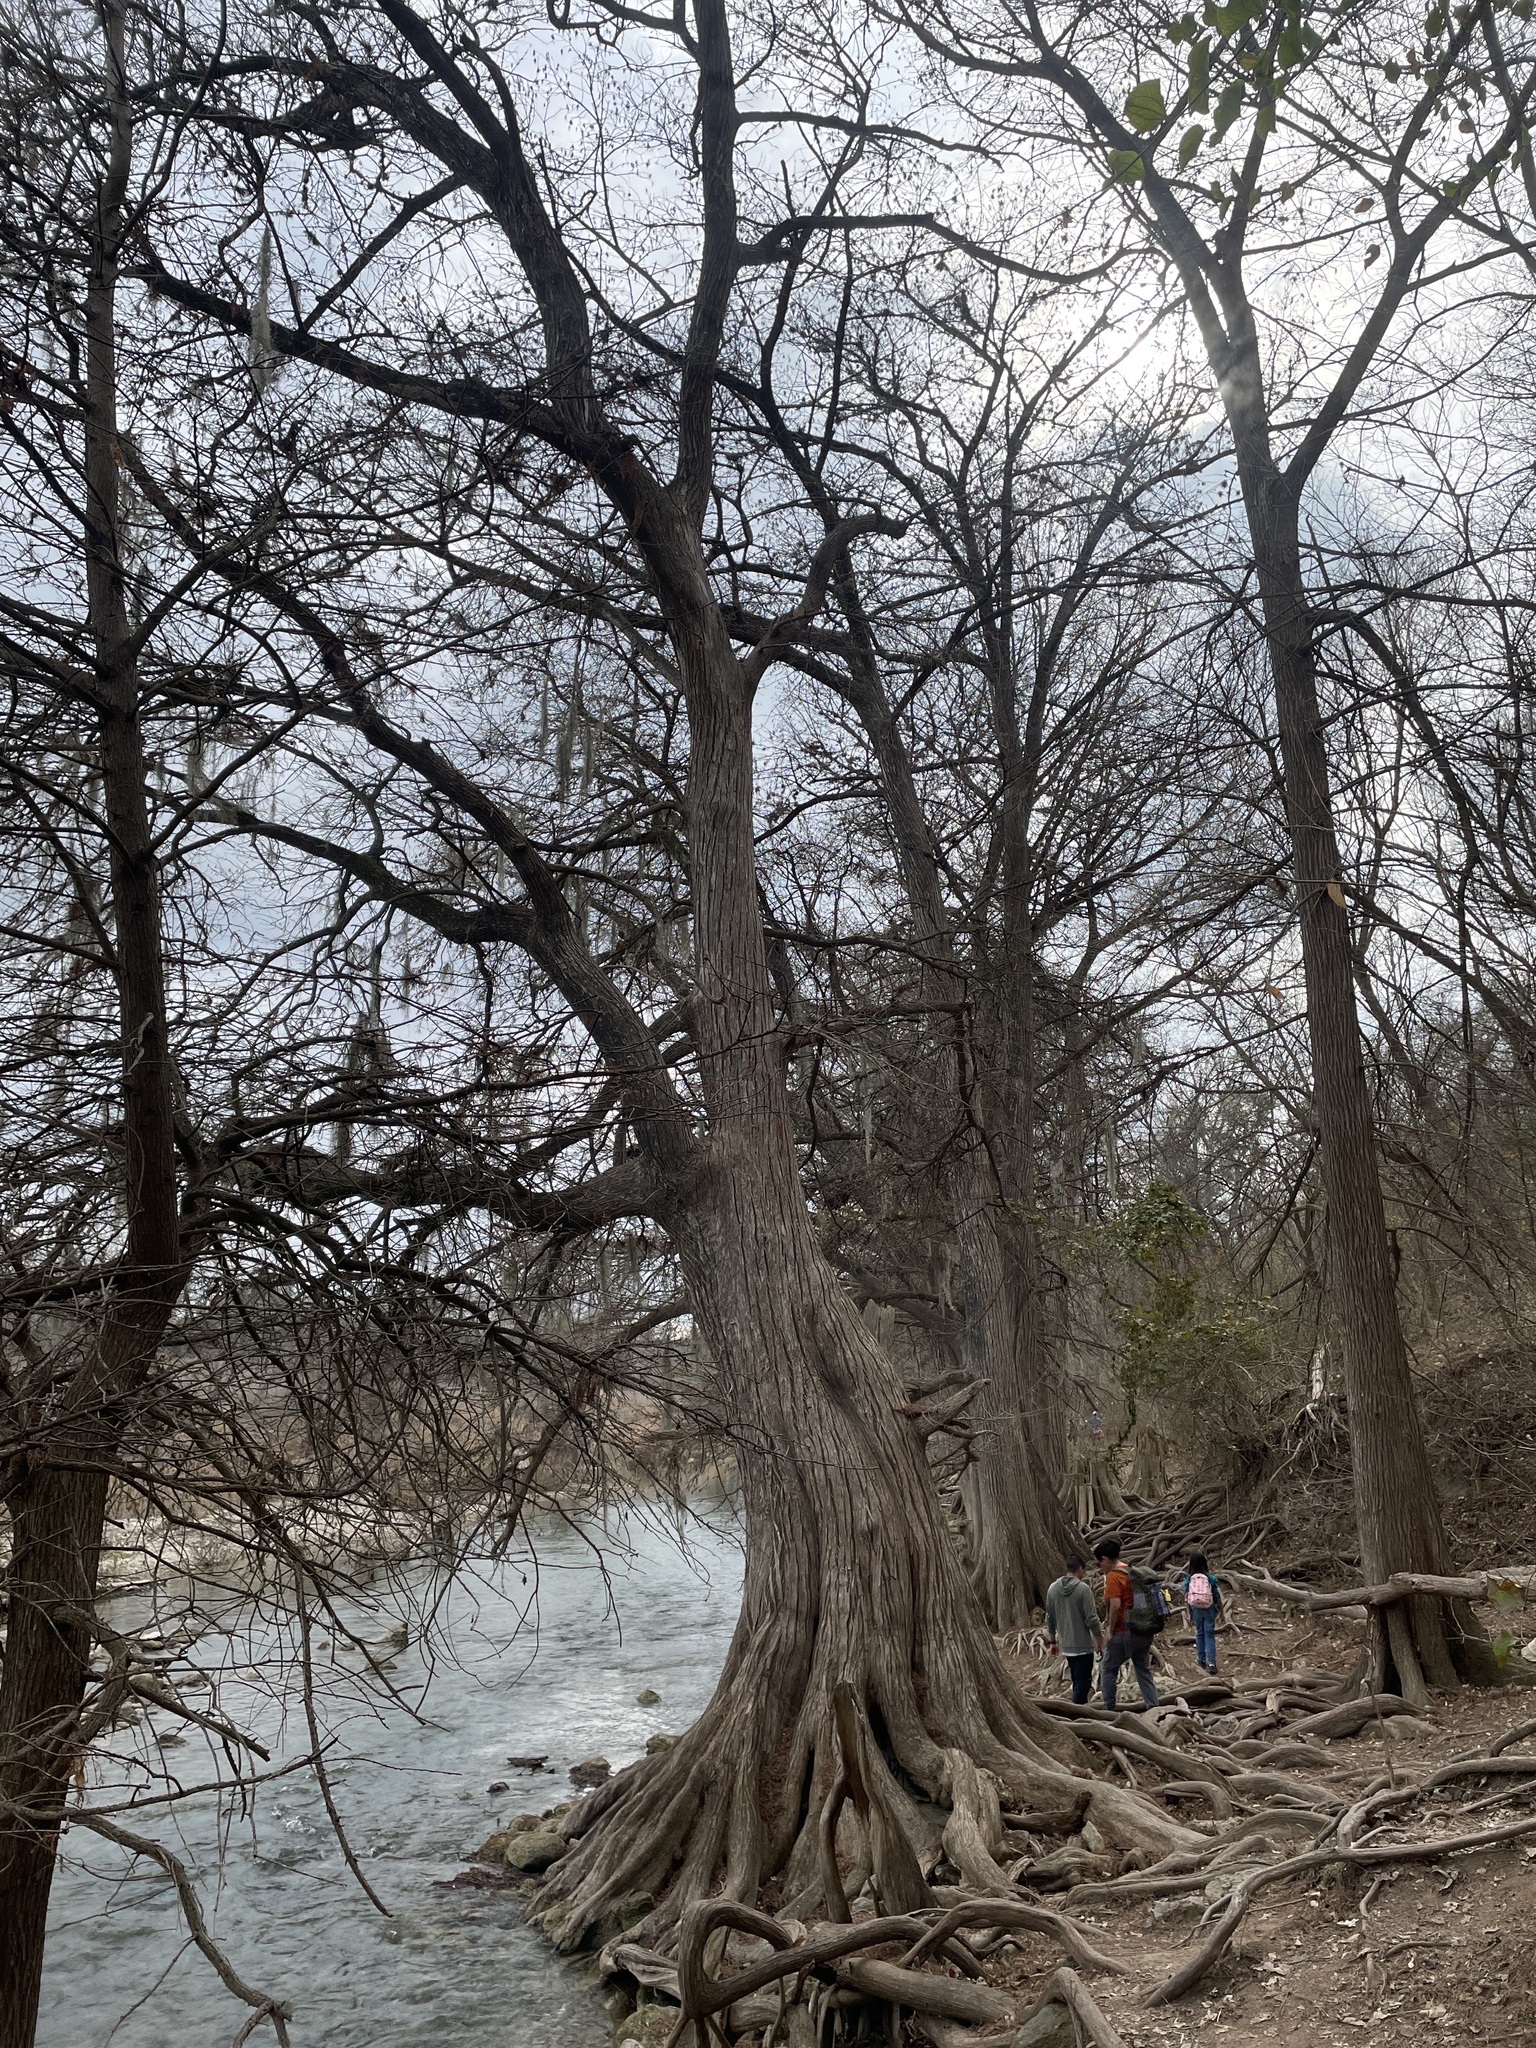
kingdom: Plantae
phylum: Tracheophyta
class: Pinopsida
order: Pinales
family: Cupressaceae
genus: Taxodium
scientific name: Taxodium distichum
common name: Bald cypress
